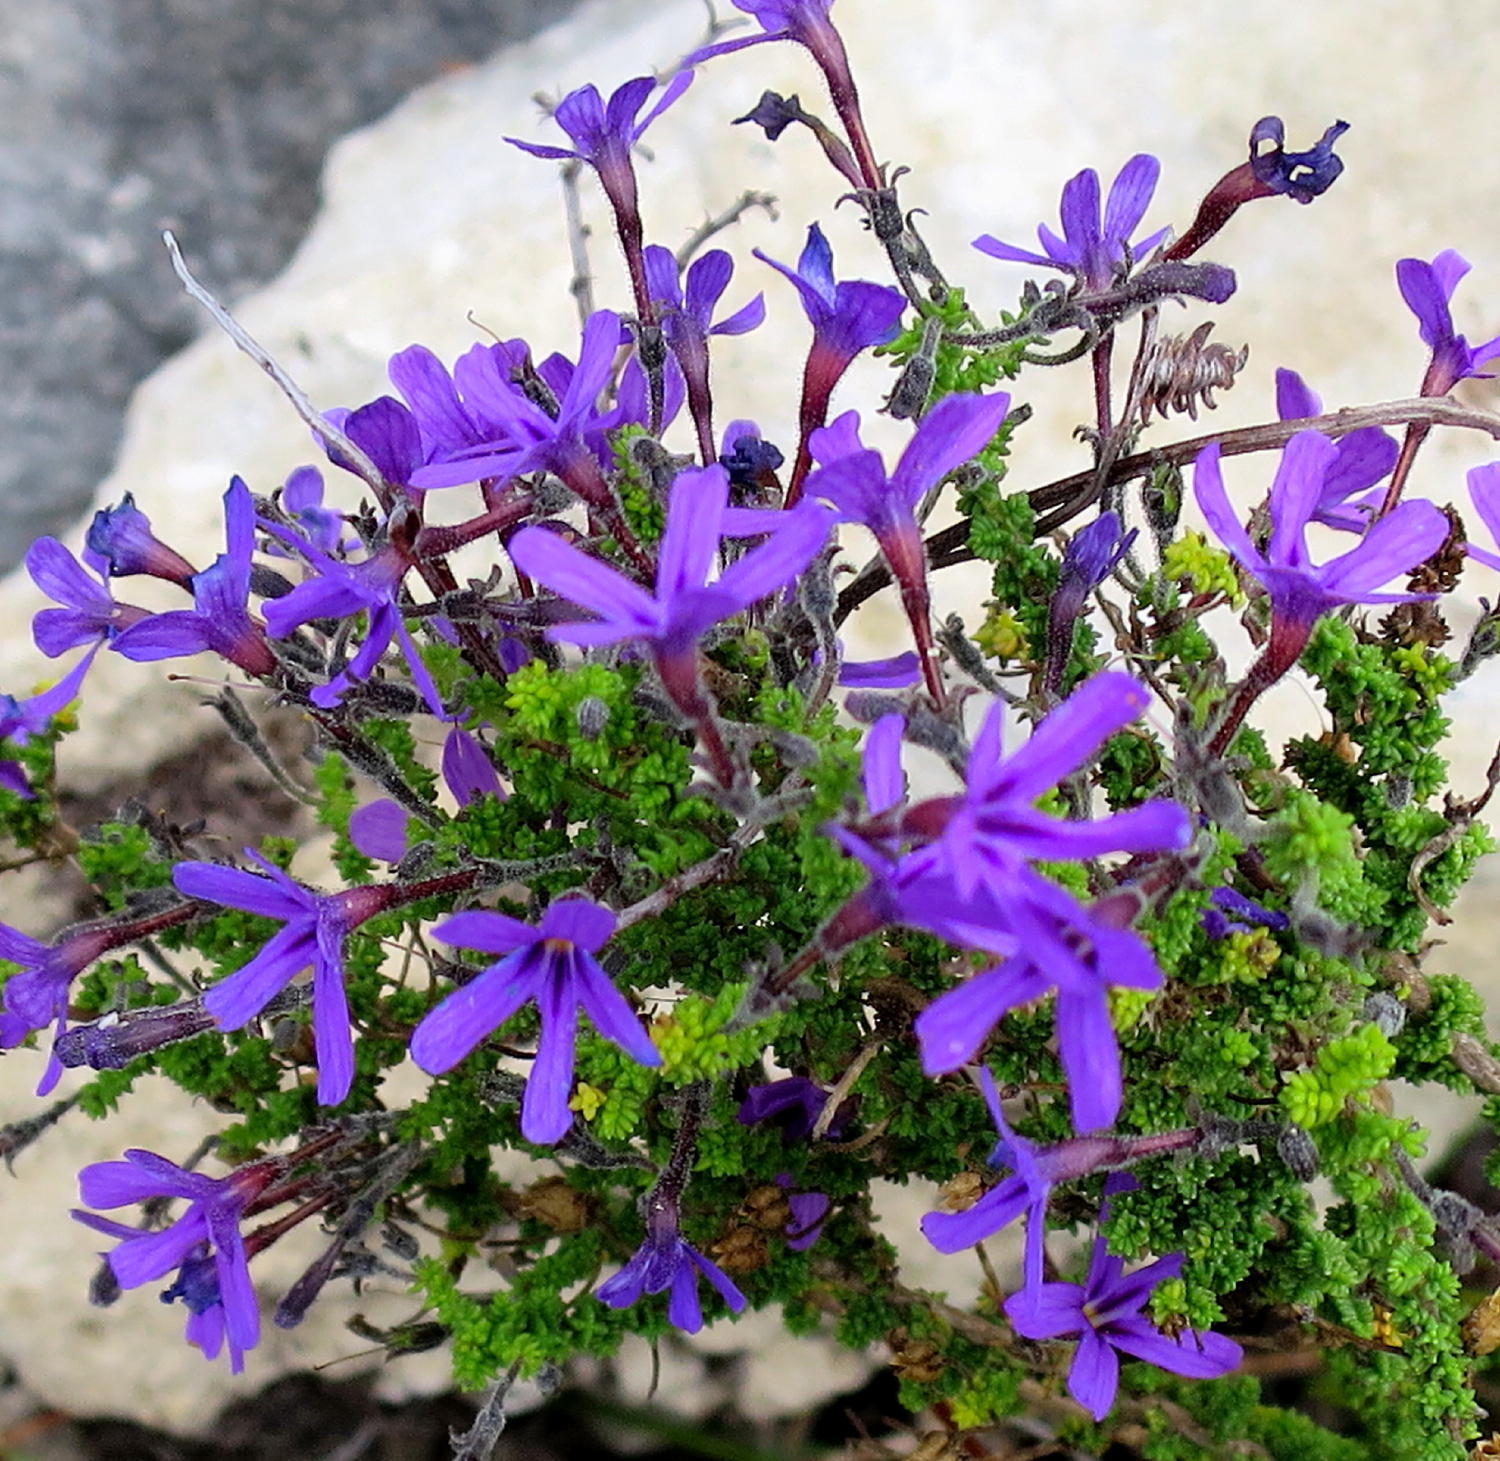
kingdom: Plantae
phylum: Tracheophyta
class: Magnoliopsida
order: Lamiales
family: Scrophulariaceae
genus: Jamesbrittenia
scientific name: Jamesbrittenia microphylla
